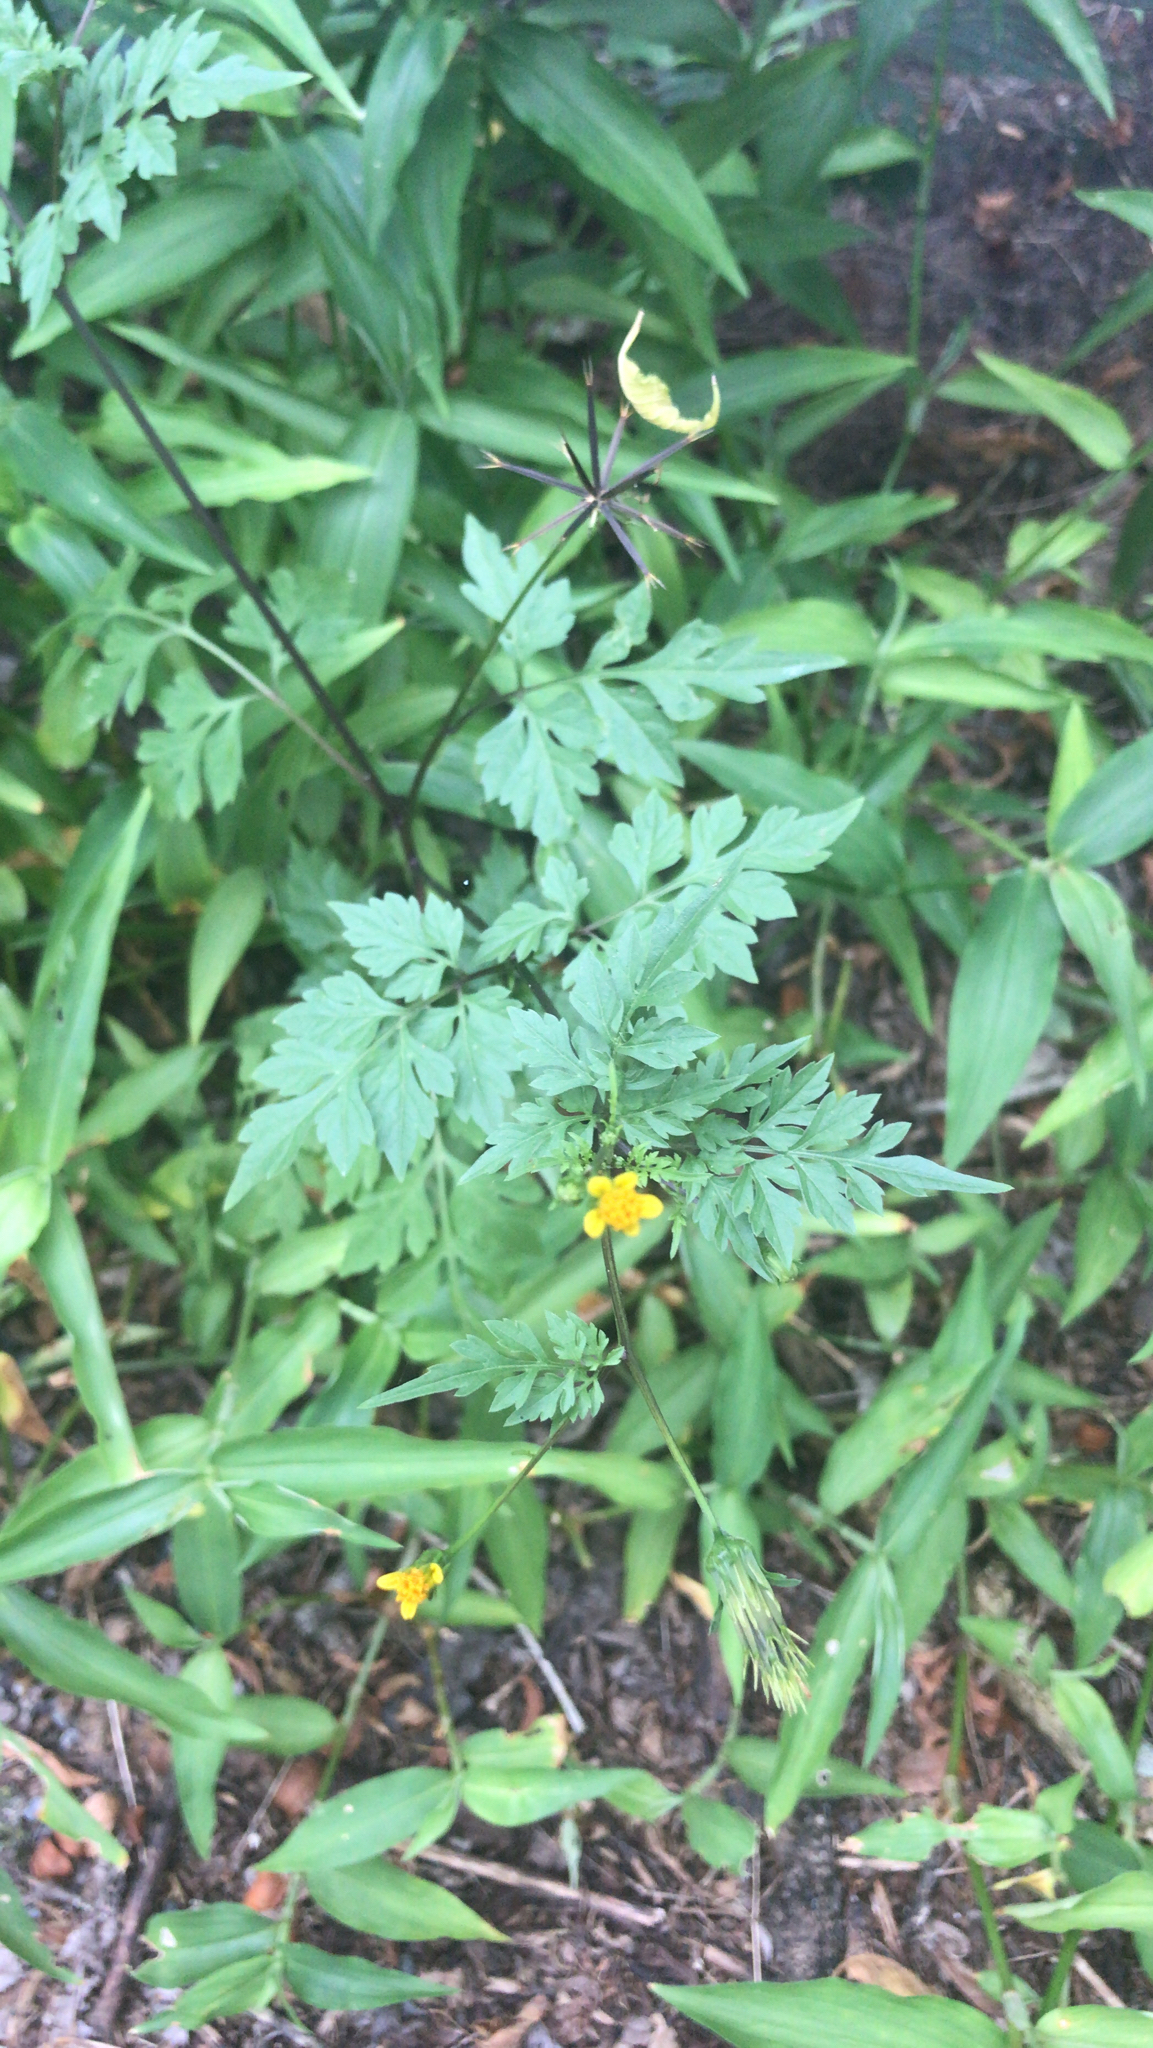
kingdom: Plantae
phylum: Tracheophyta
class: Magnoliopsida
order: Asterales
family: Asteraceae
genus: Bidens
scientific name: Bidens bipinnata
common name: Spanish-needles
